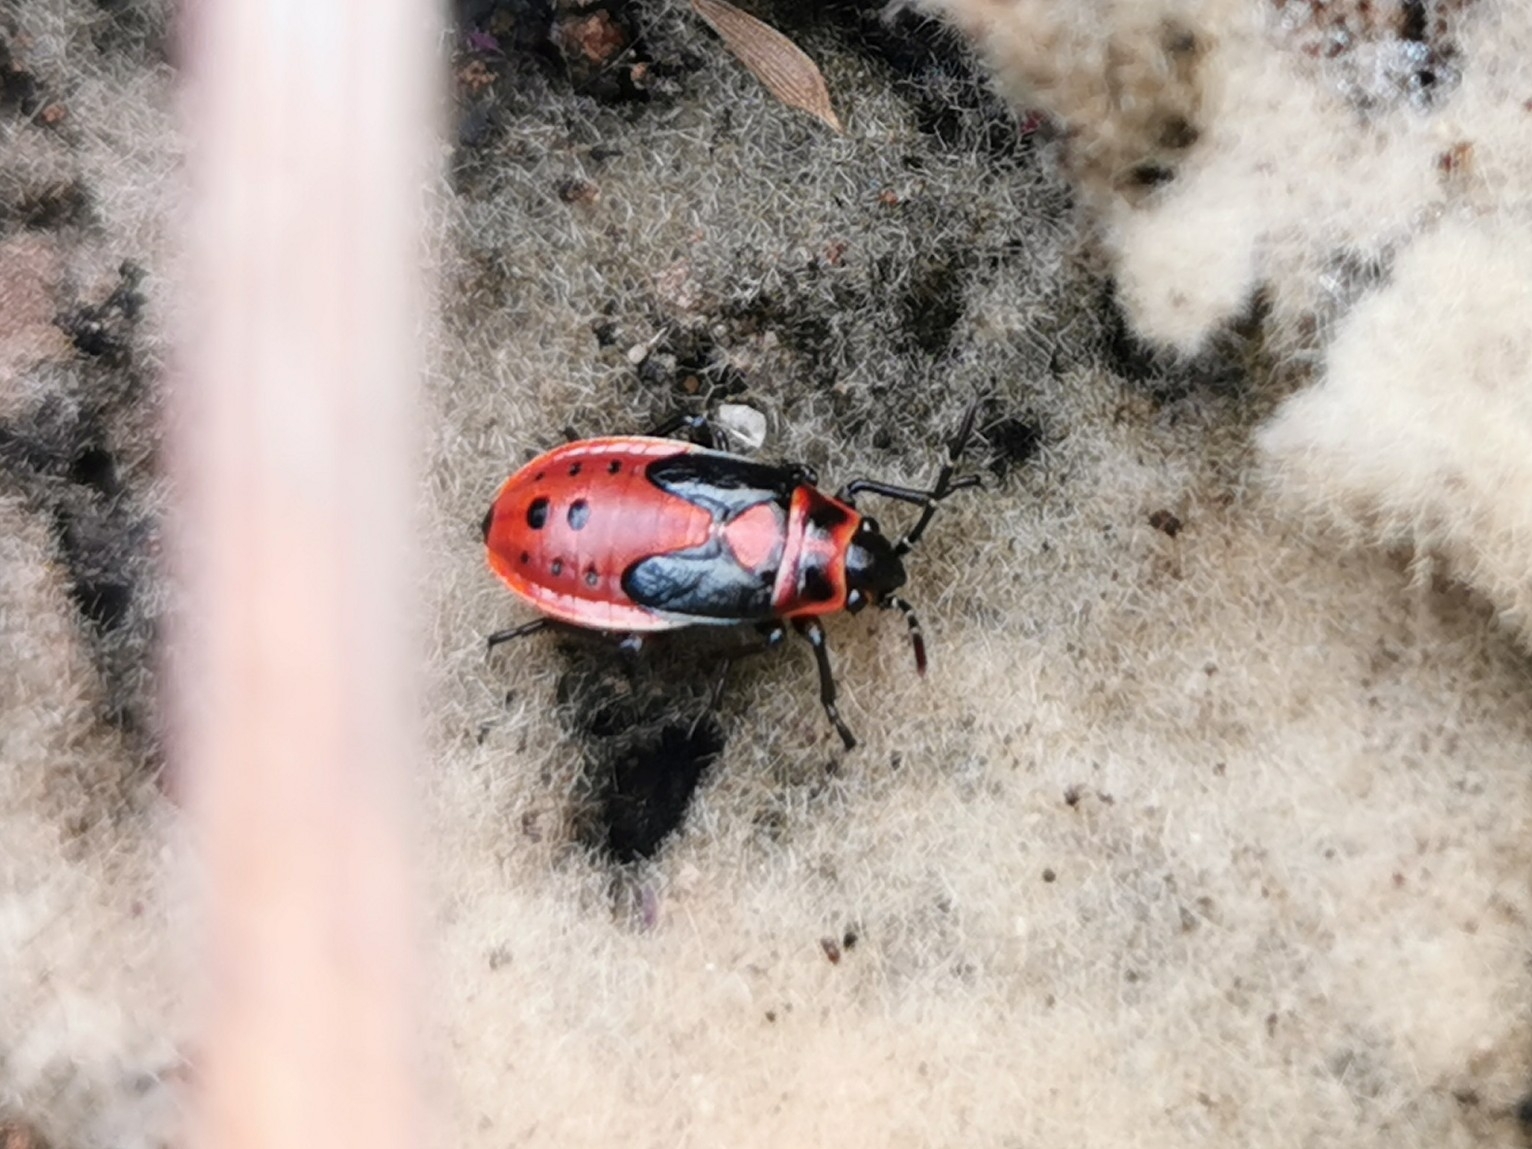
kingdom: Animalia
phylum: Arthropoda
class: Insecta
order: Hemiptera
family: Lygaeidae
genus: Lygaeus
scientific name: Lygaeus kalmii
